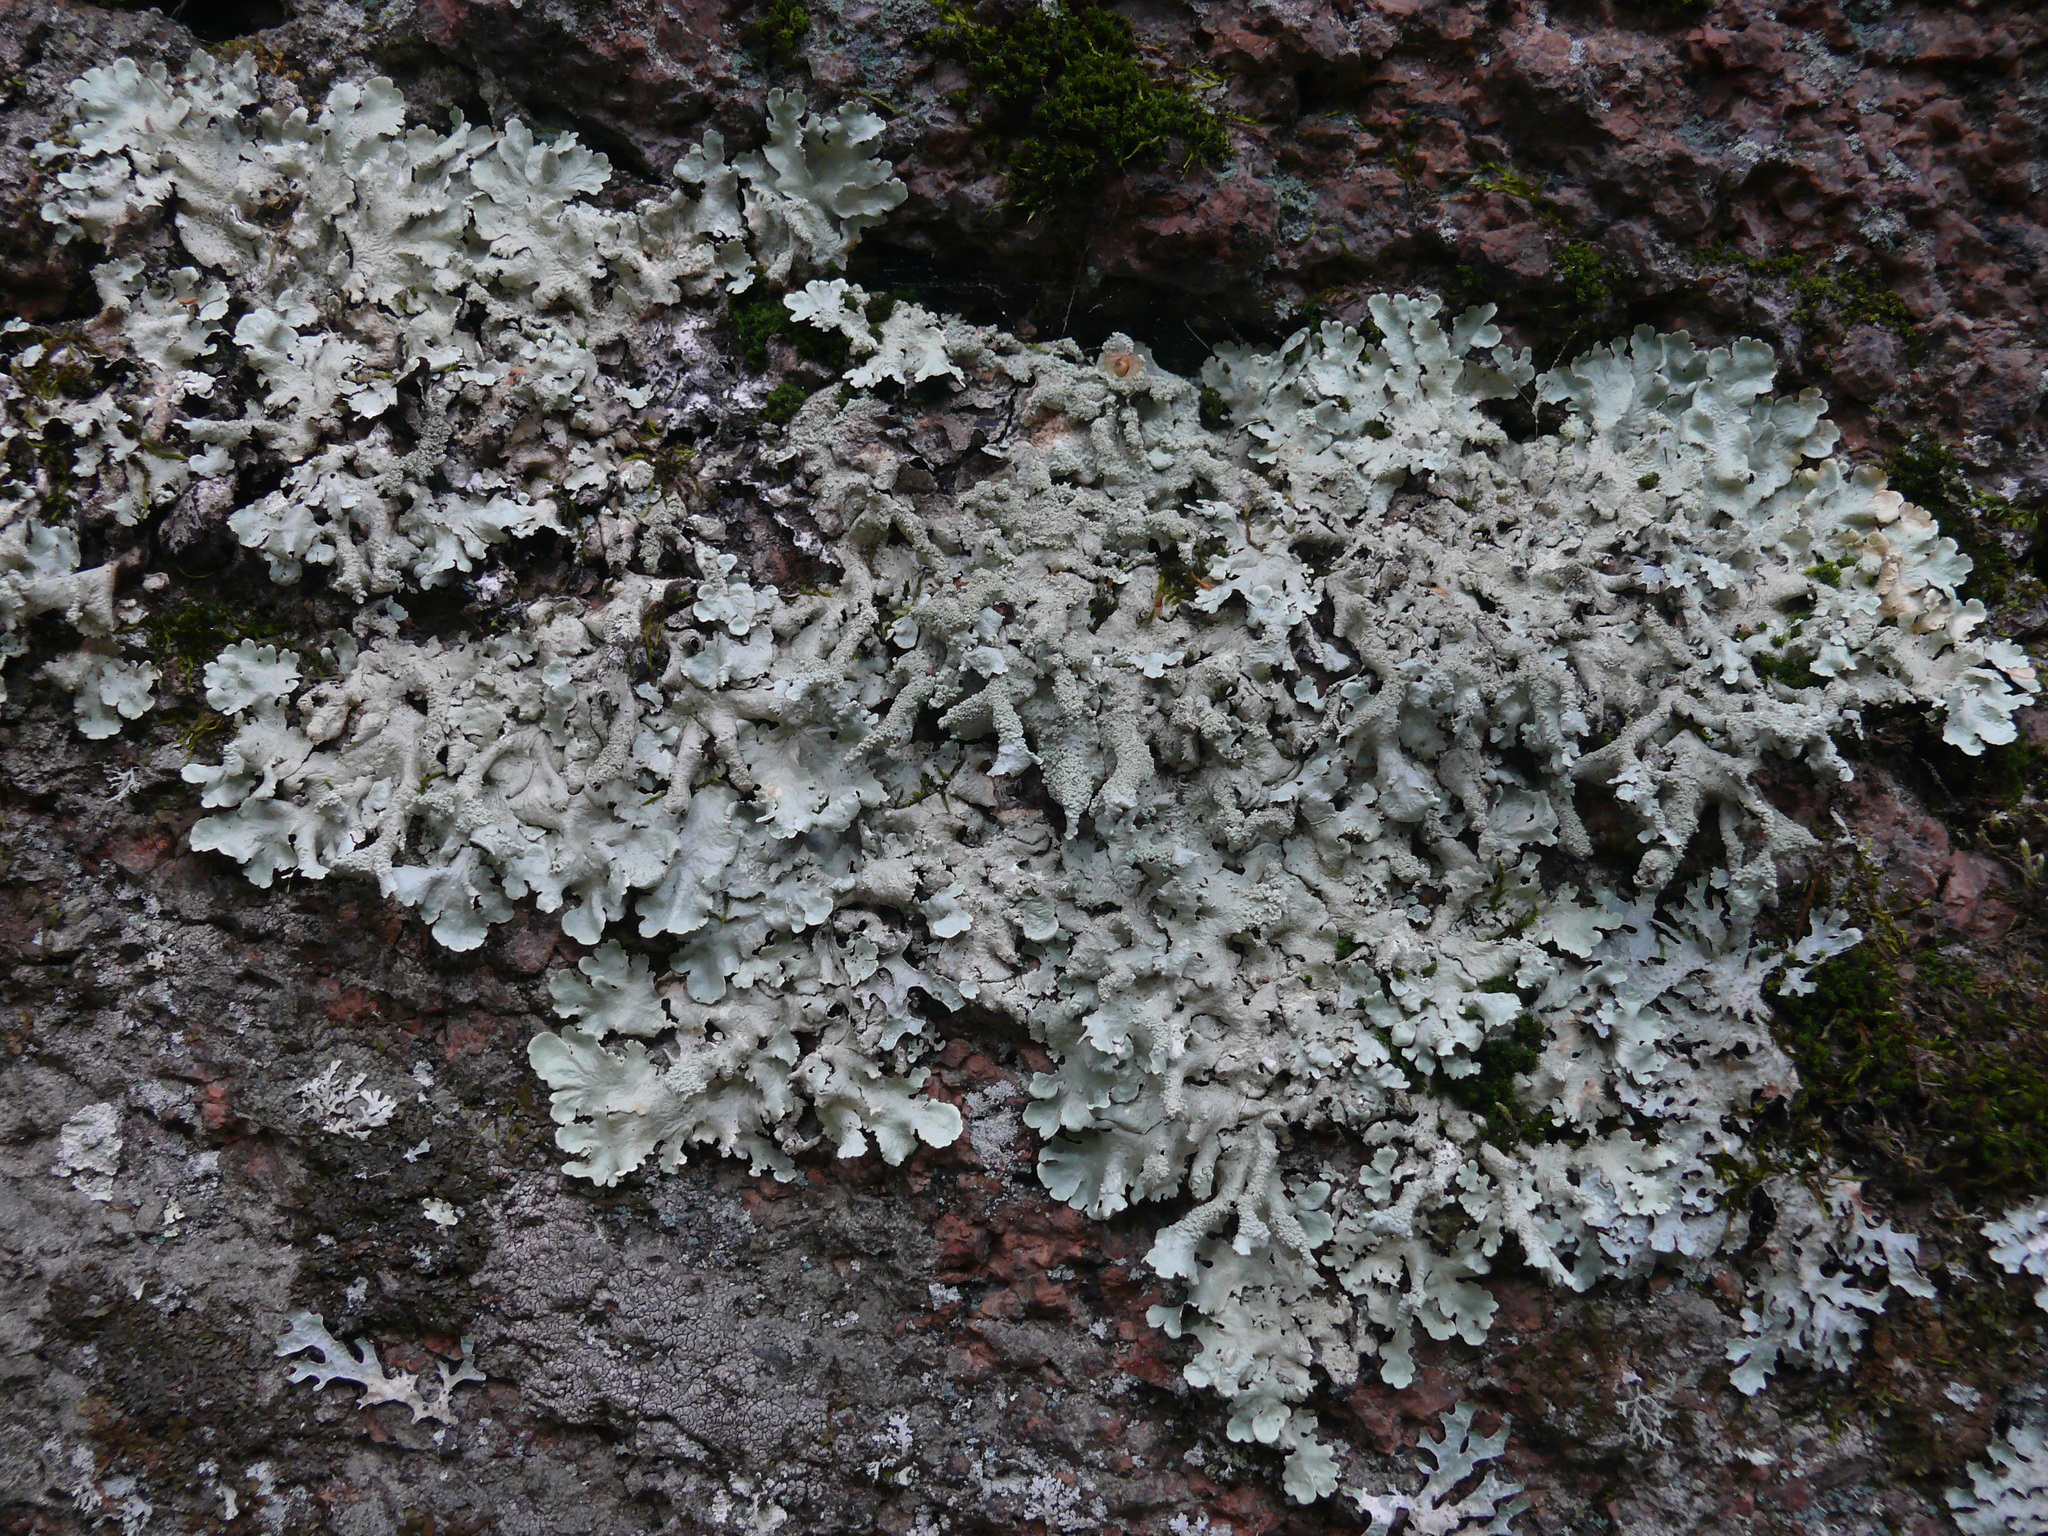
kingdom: Fungi
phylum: Ascomycota
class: Lecanoromycetes
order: Lecanorales
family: Parmeliaceae
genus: Flavoparmelia
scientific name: Flavoparmelia caperata
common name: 40-mile per hour lichen
